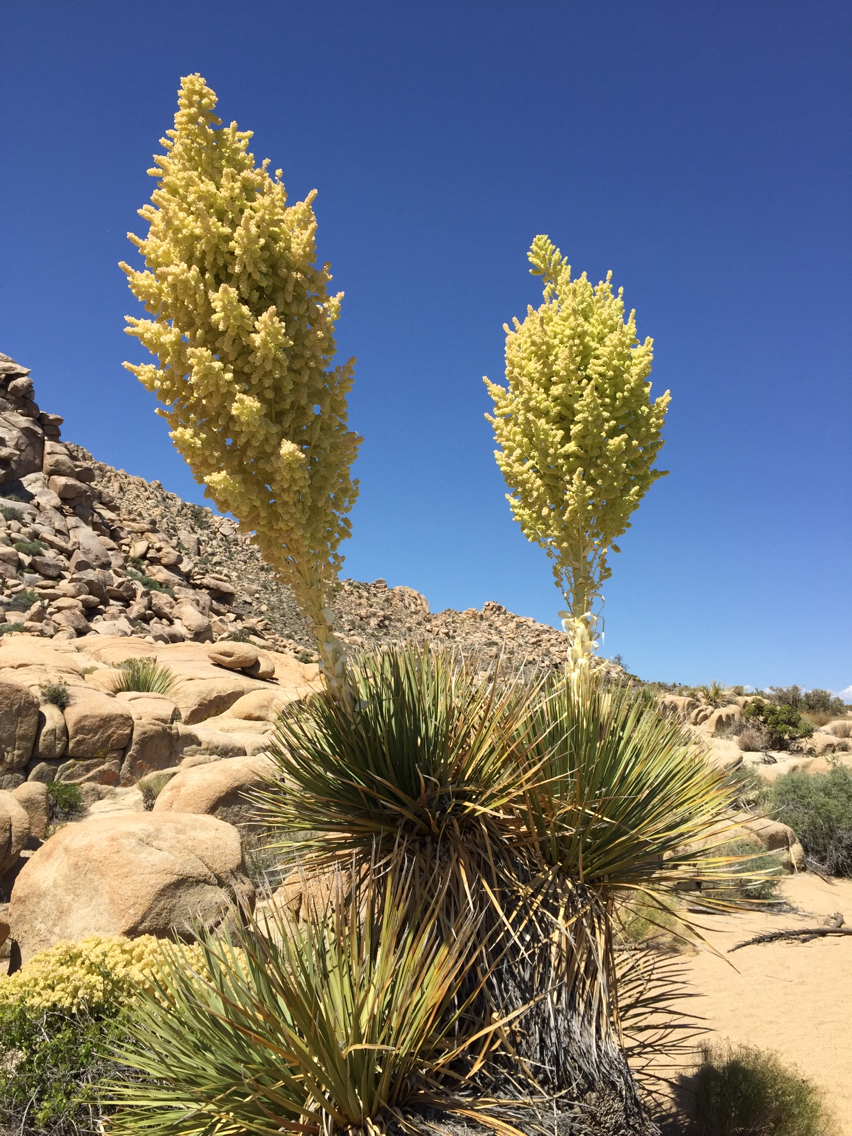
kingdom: Plantae
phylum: Tracheophyta
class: Liliopsida
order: Asparagales
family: Asparagaceae
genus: Nolina
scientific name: Nolina parryi
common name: Parry nolina
